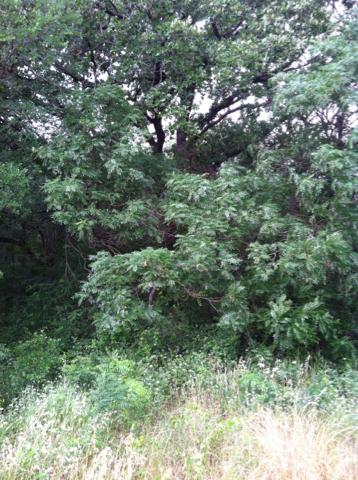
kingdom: Plantae
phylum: Tracheophyta
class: Magnoliopsida
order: Fabales
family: Fabaceae
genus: Styphnolobium
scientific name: Styphnolobium affine
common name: Texas sophora
